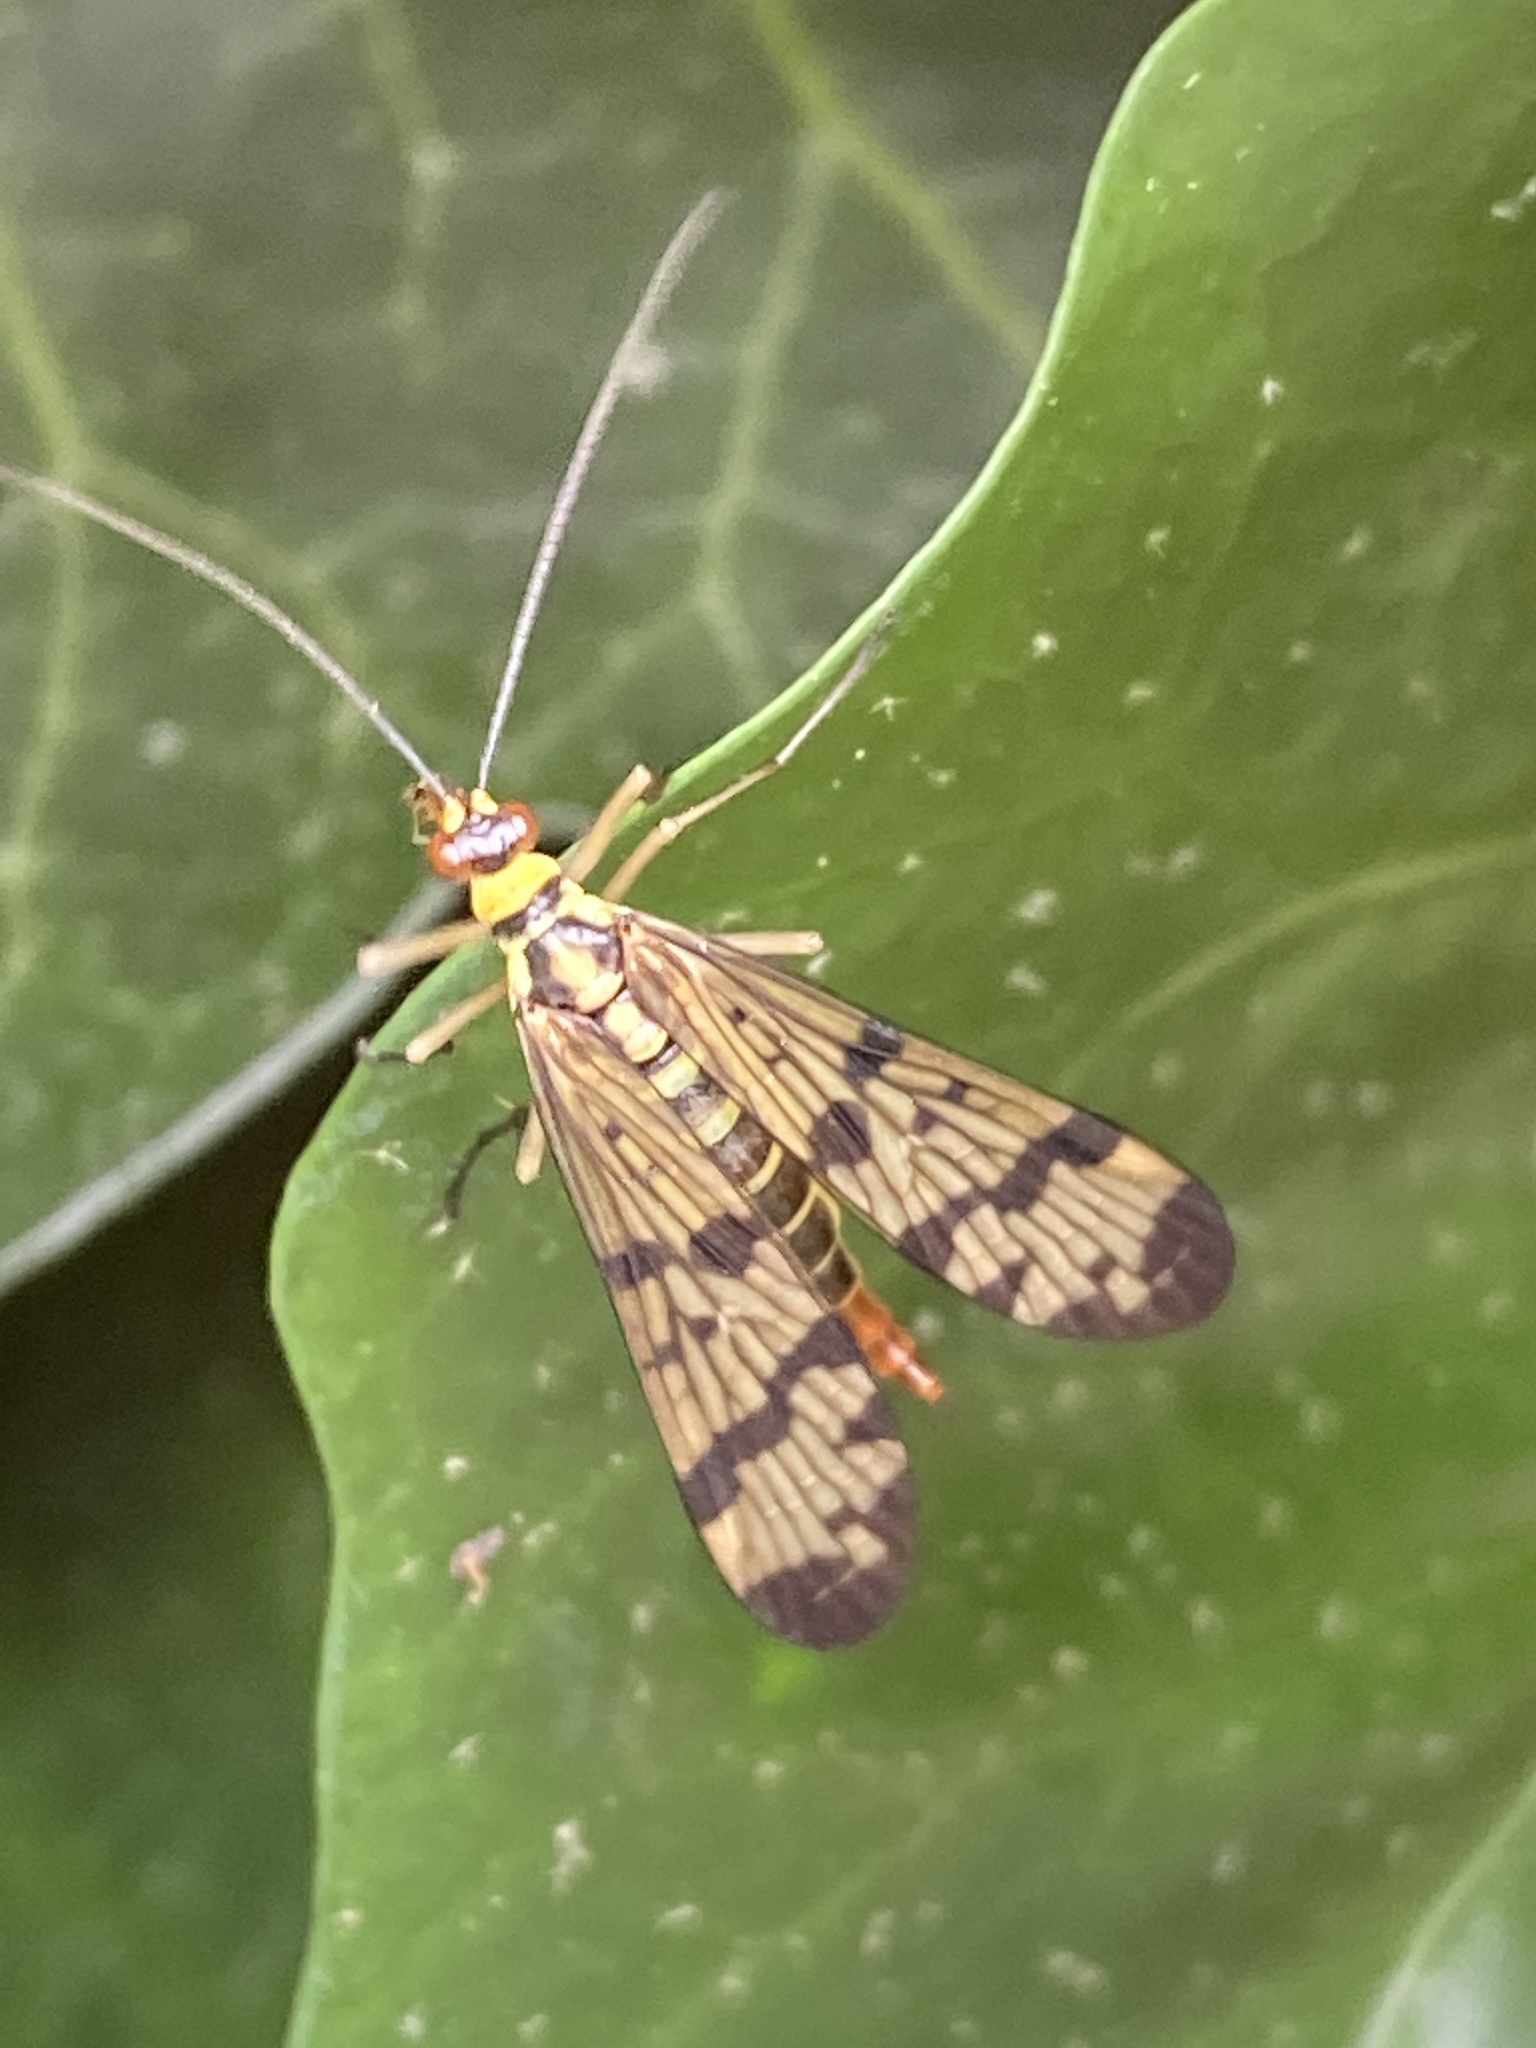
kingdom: Animalia
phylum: Arthropoda
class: Insecta
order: Mecoptera
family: Panorpidae
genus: Panorpa
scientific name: Panorpa communis
